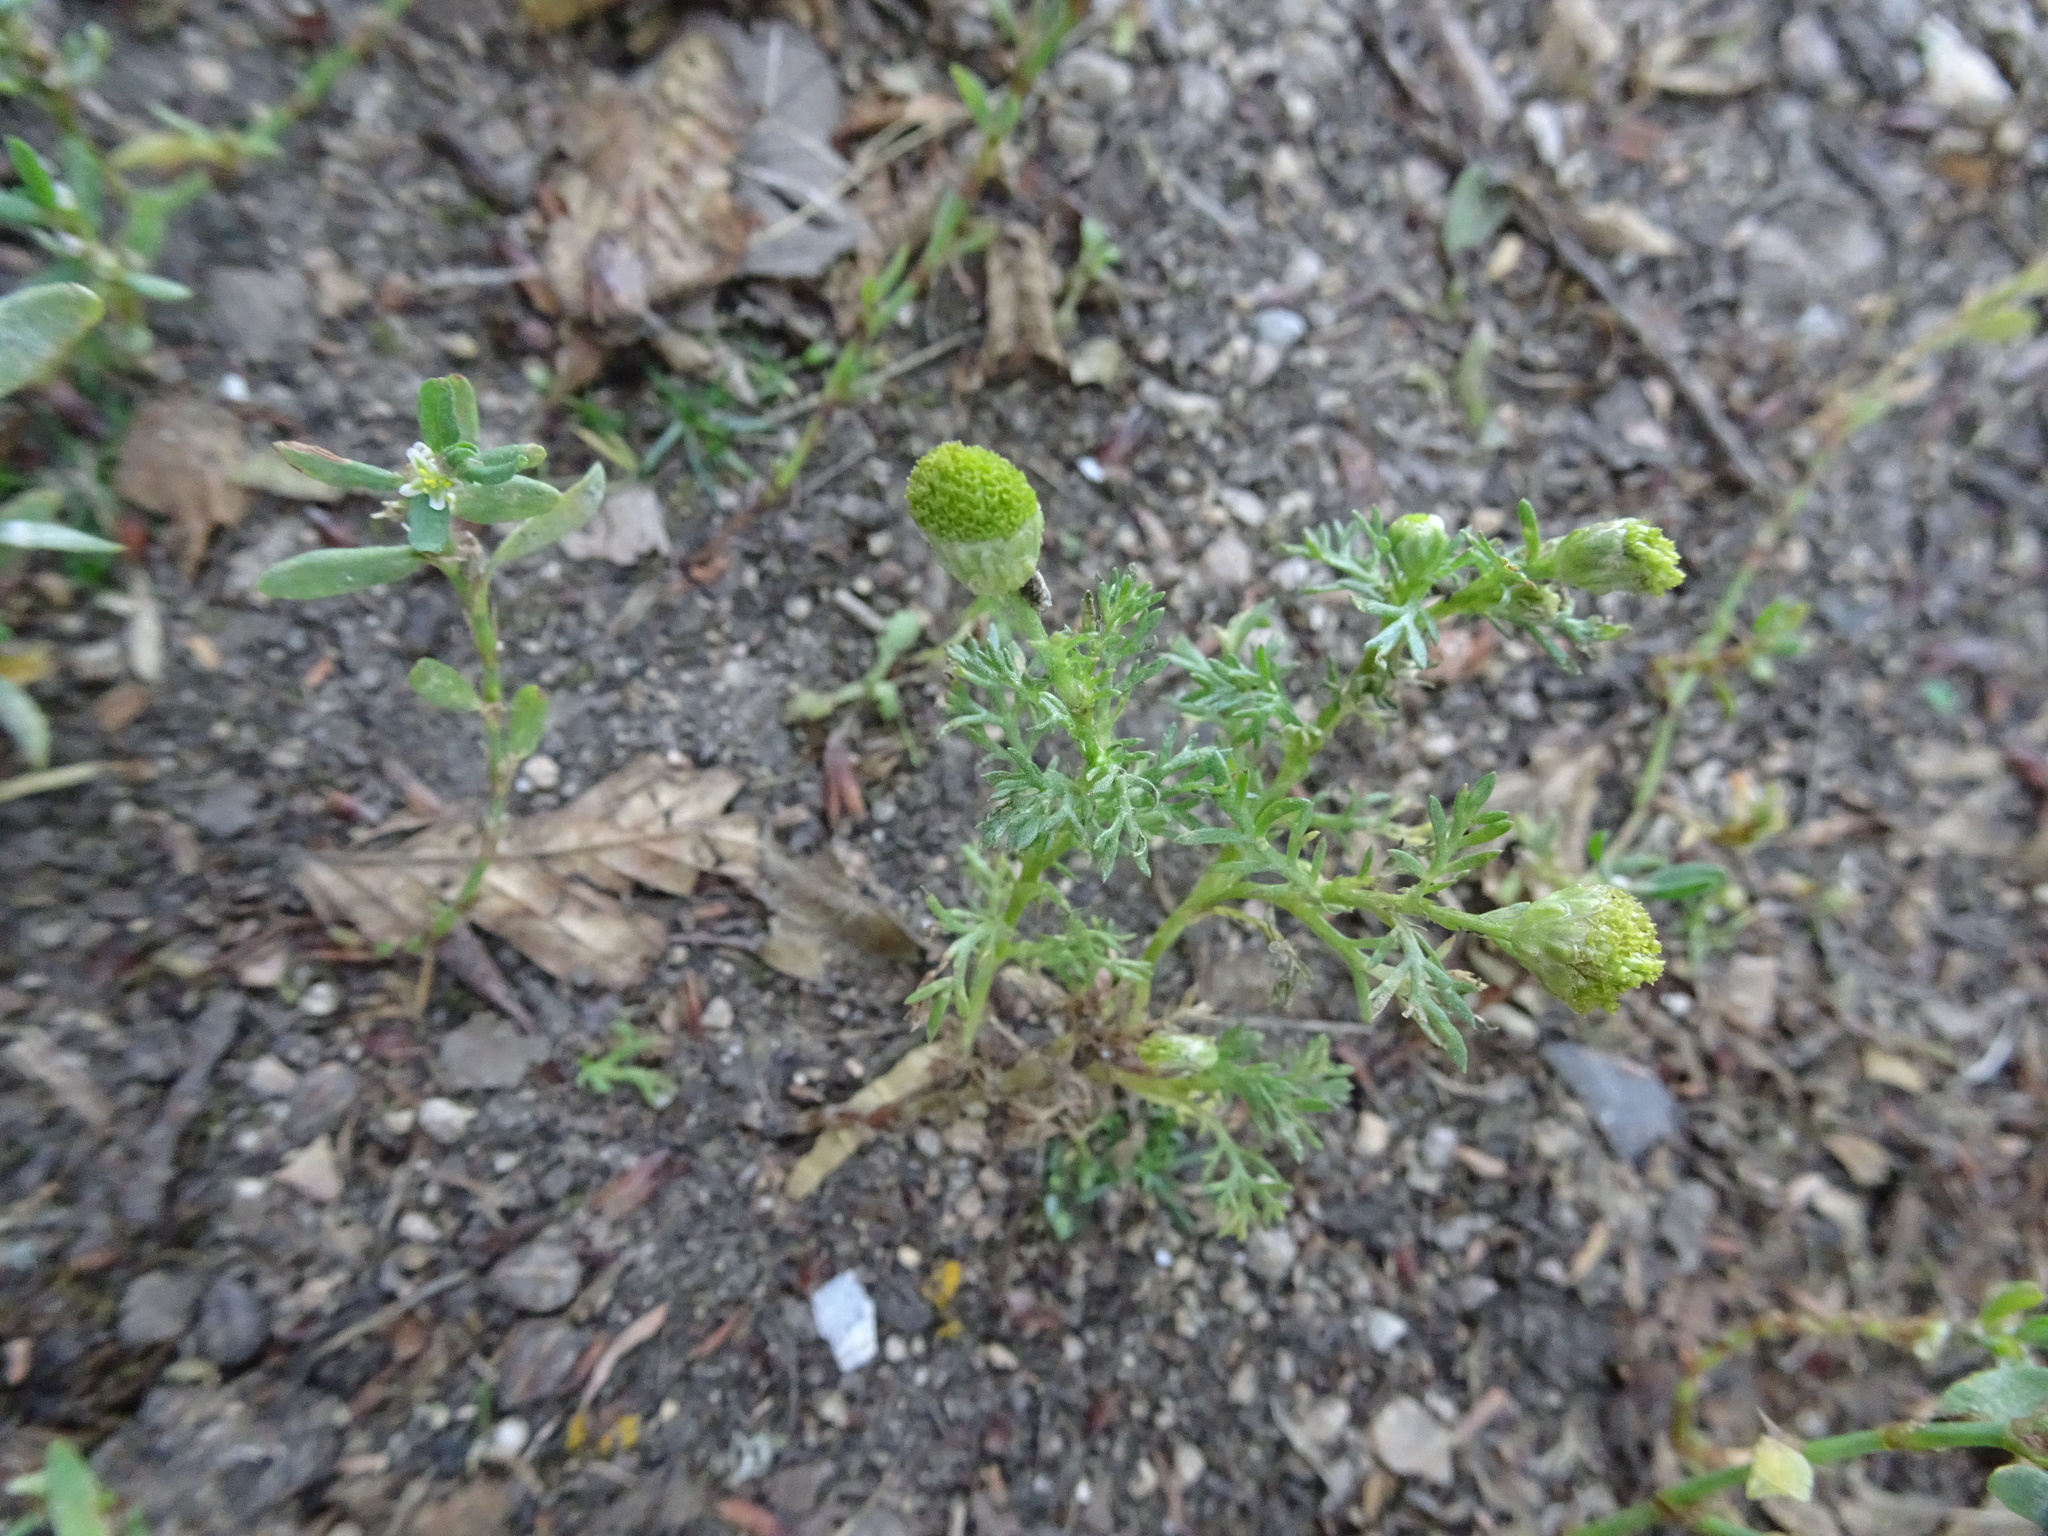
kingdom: Plantae
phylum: Tracheophyta
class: Magnoliopsida
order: Asterales
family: Asteraceae
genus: Matricaria
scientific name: Matricaria discoidea
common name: Disc mayweed
